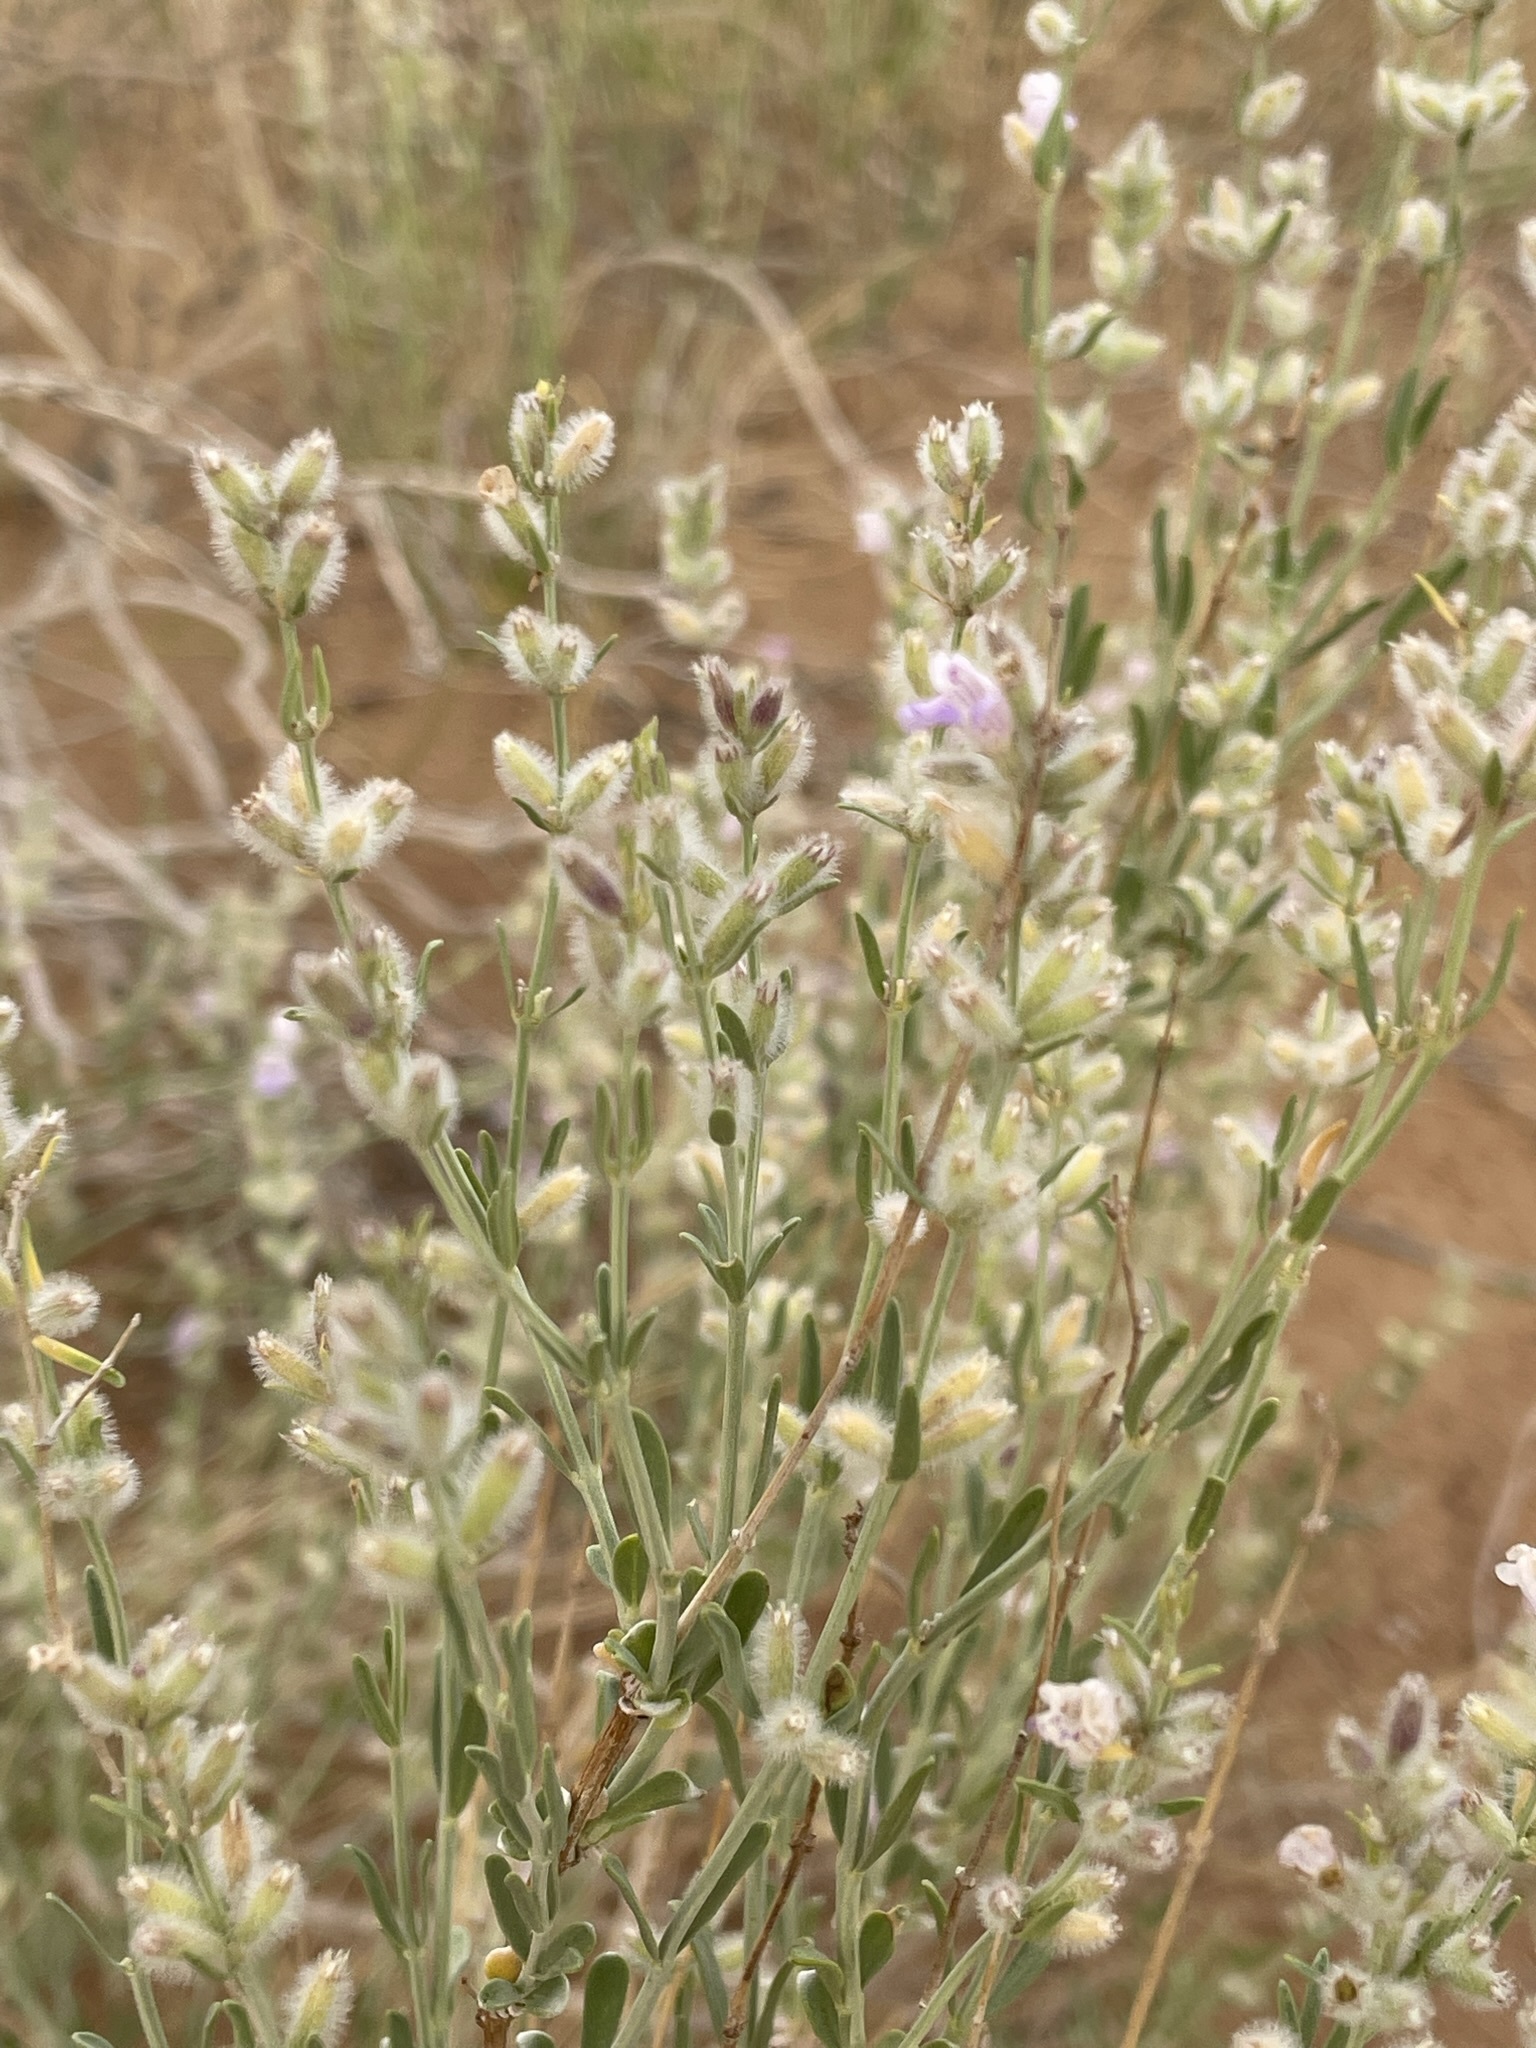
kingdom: Plantae
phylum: Tracheophyta
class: Magnoliopsida
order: Lamiales
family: Lamiaceae
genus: Poliomintha
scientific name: Poliomintha incana
